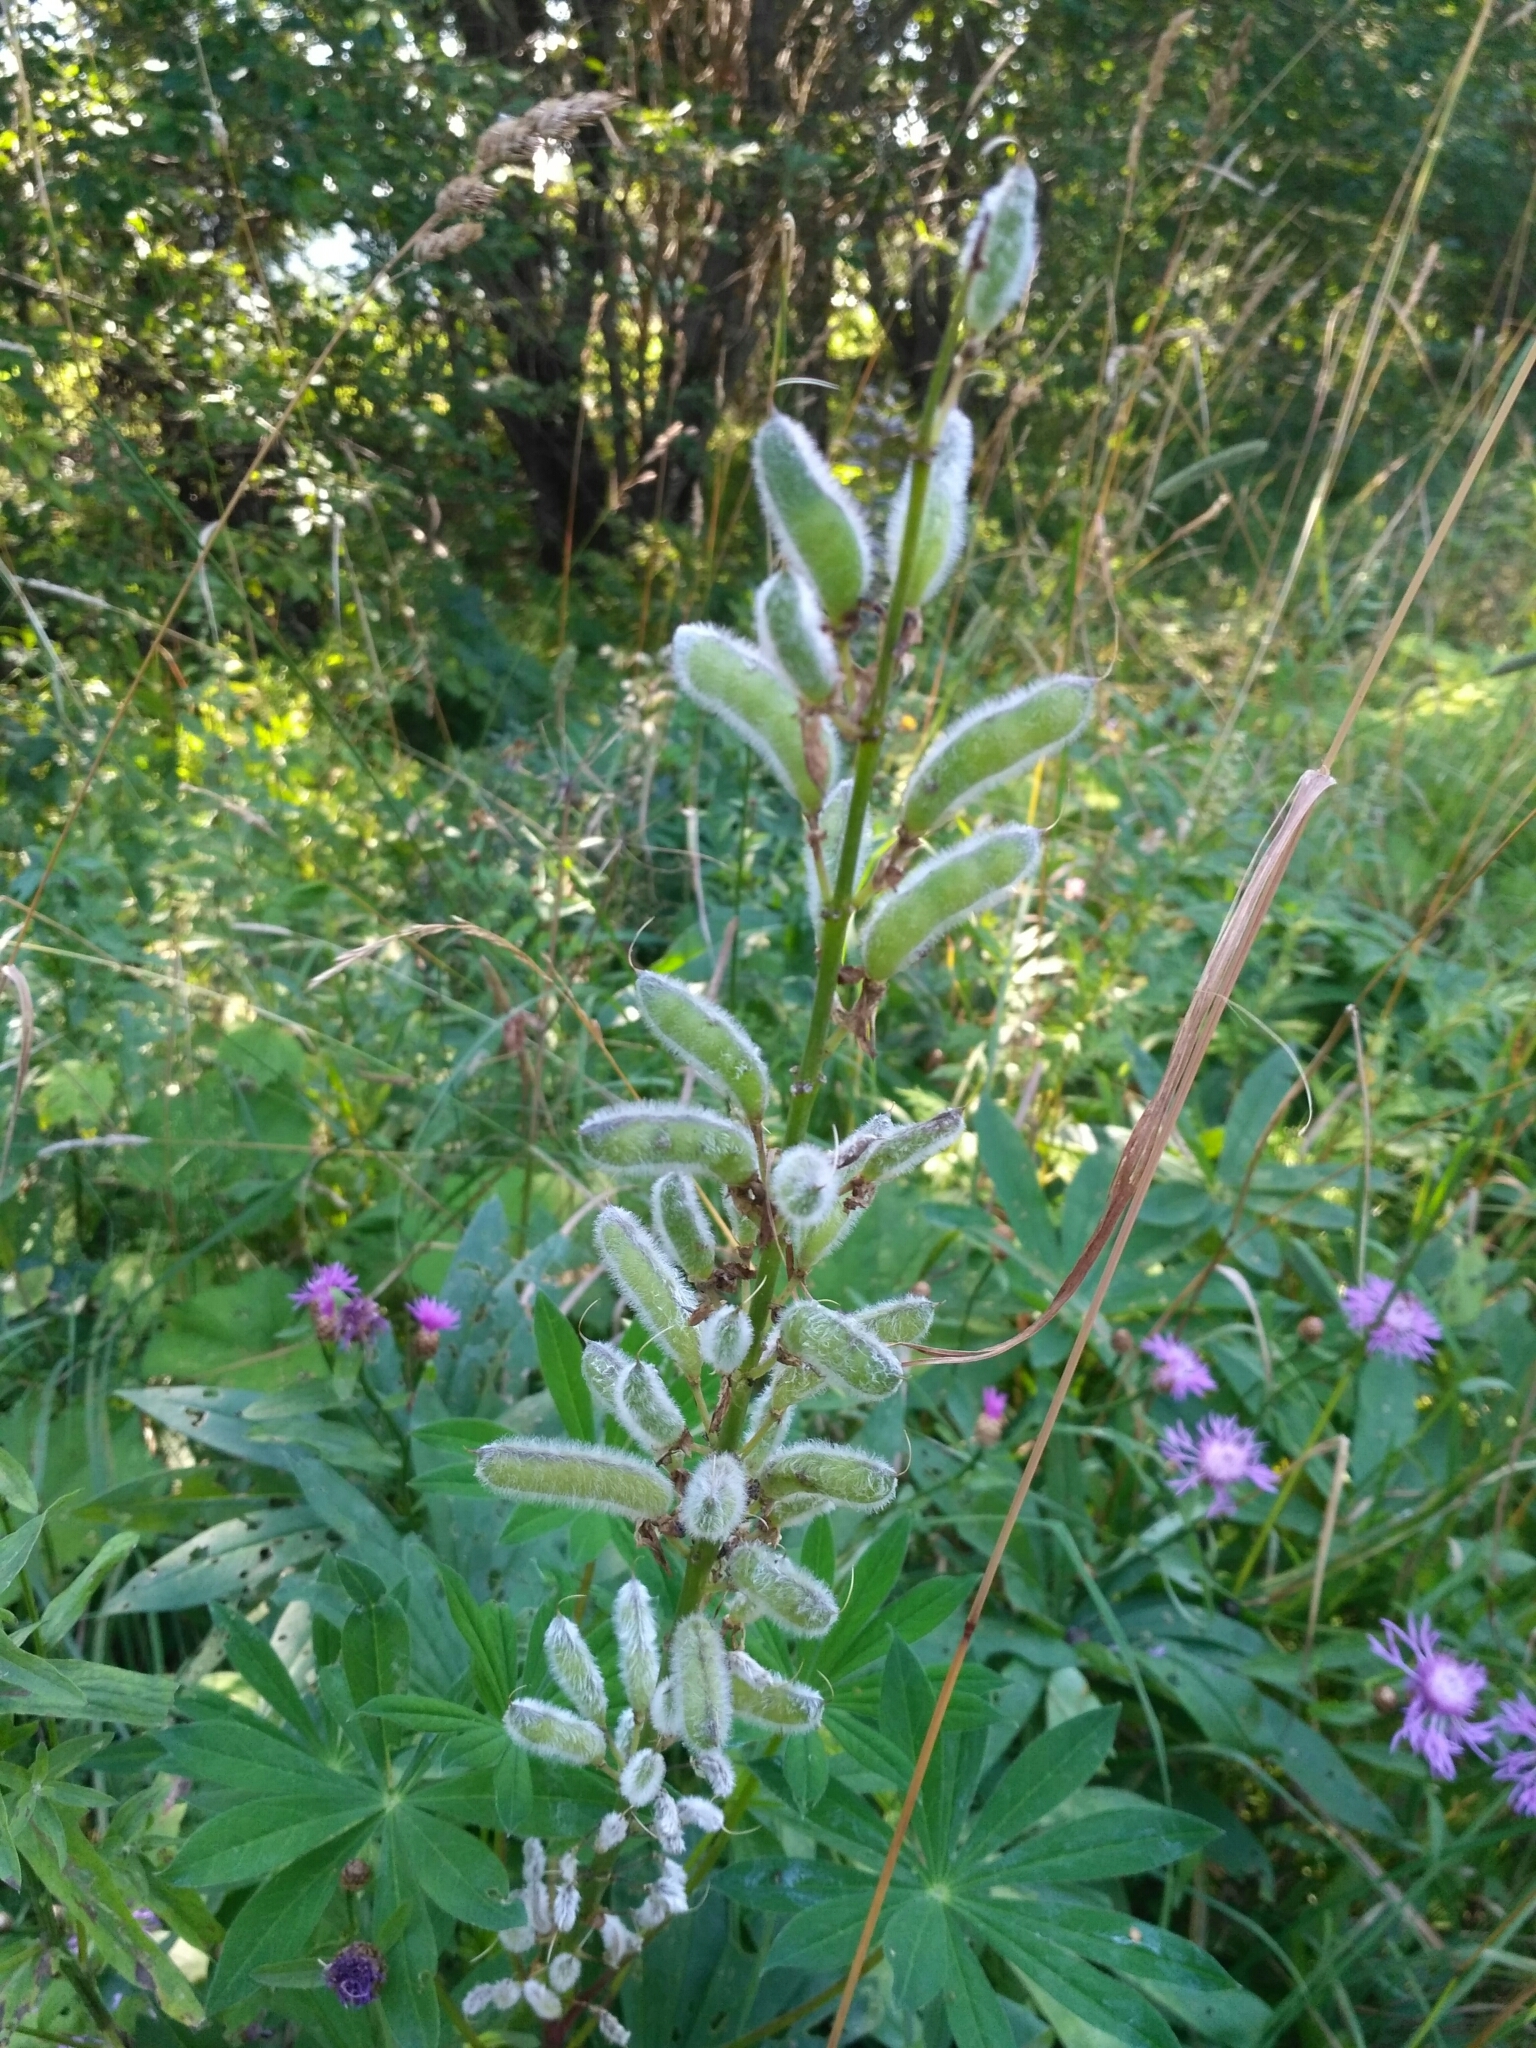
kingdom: Plantae
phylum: Tracheophyta
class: Magnoliopsida
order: Fabales
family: Fabaceae
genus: Lupinus
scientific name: Lupinus polyphyllus
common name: Garden lupin
